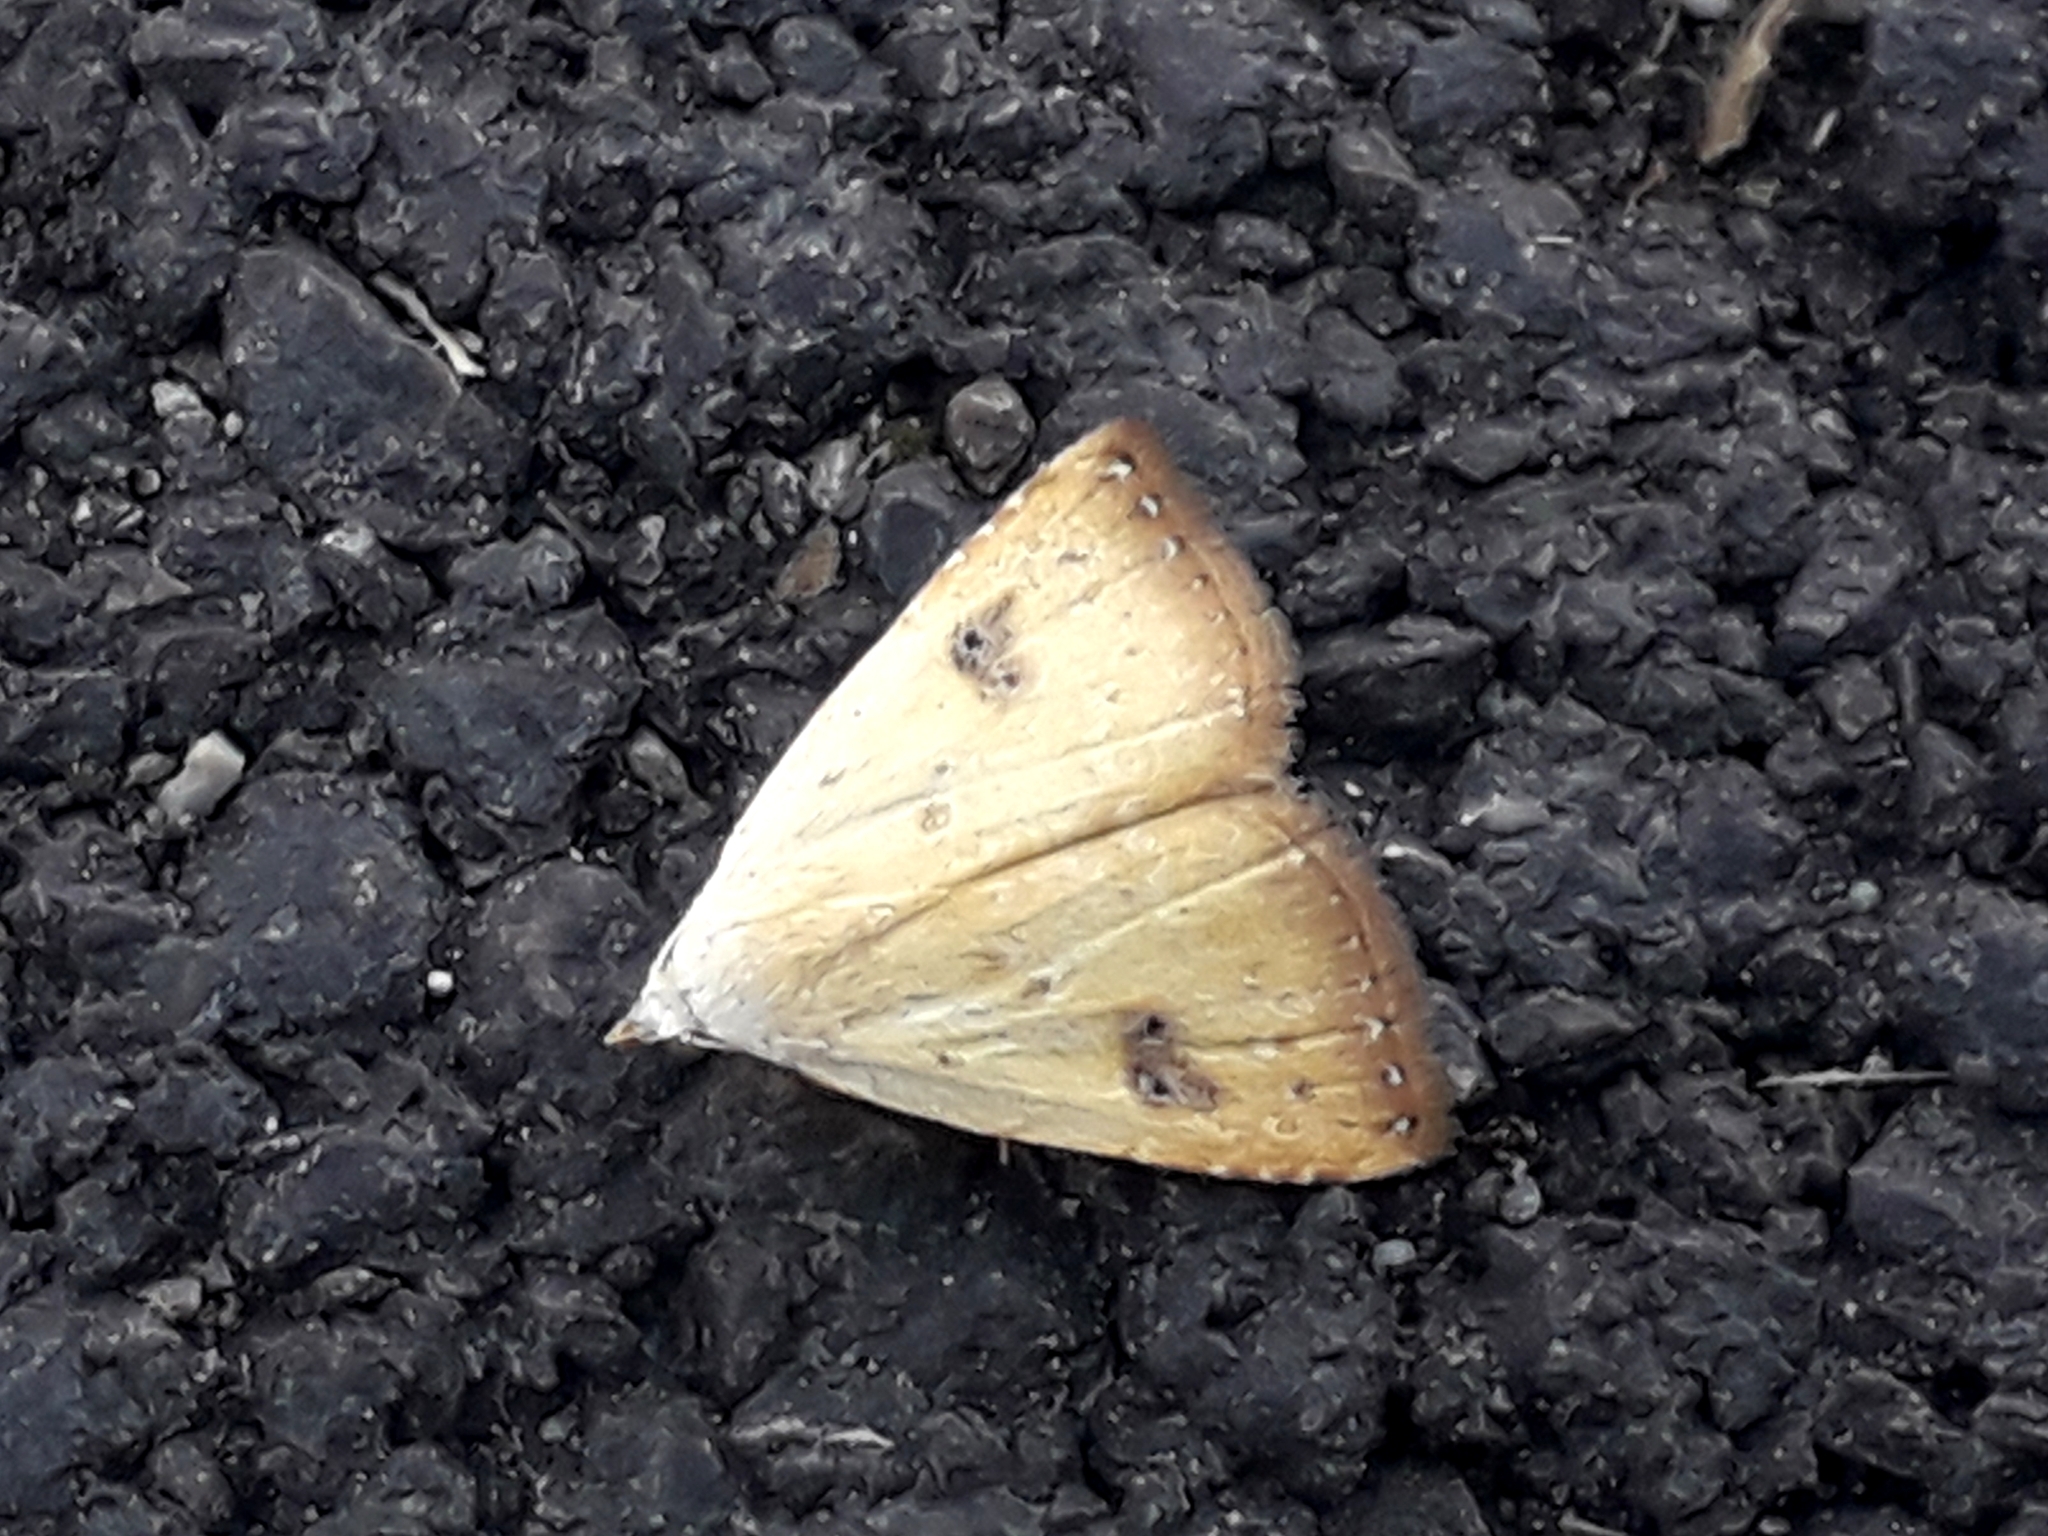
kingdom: Animalia
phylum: Arthropoda
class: Insecta
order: Lepidoptera
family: Erebidae
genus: Rivula
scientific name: Rivula sericealis
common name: Straw dot
